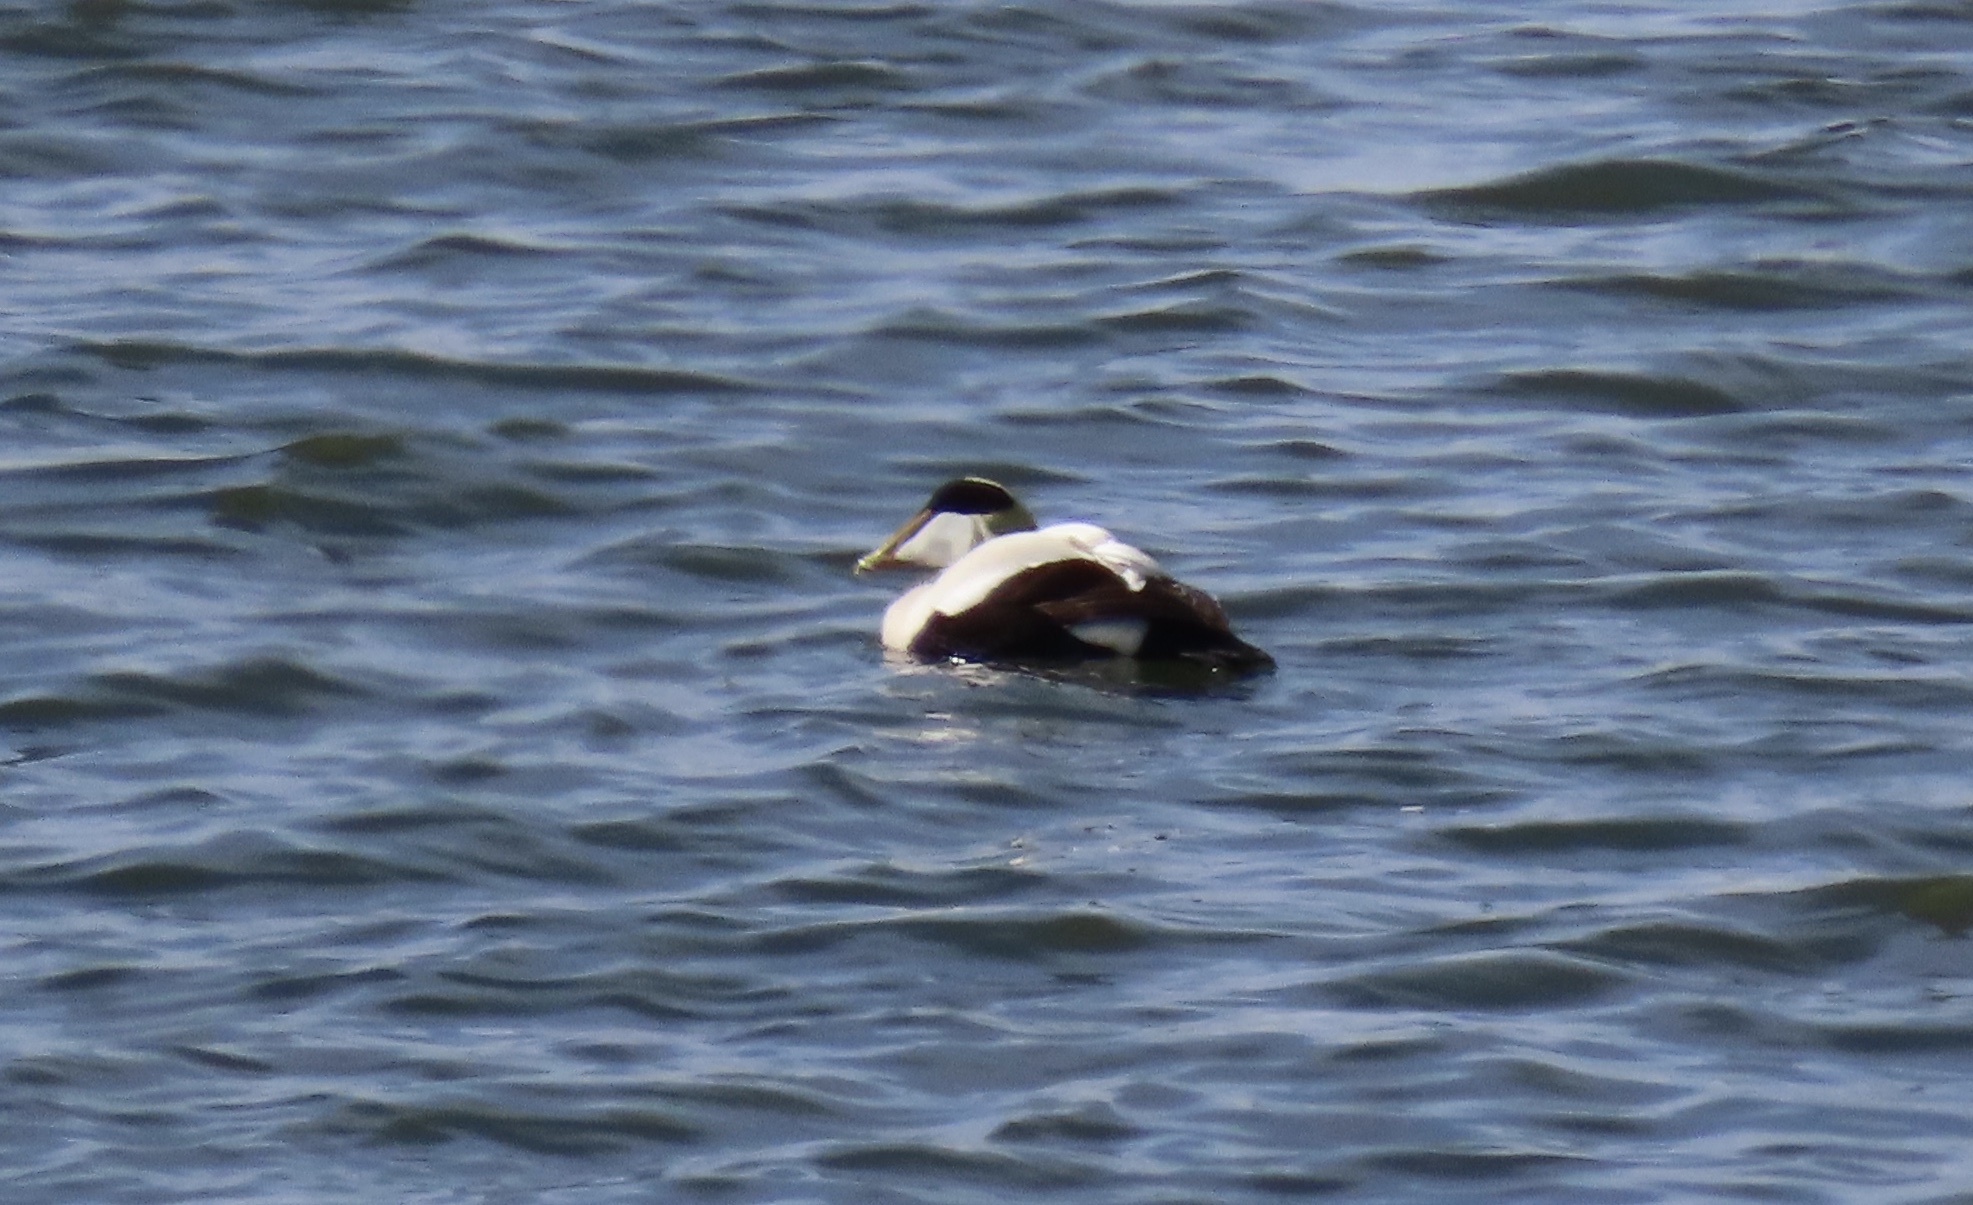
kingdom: Animalia
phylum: Chordata
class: Aves
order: Anseriformes
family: Anatidae
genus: Somateria
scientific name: Somateria mollissima
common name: Common eider
